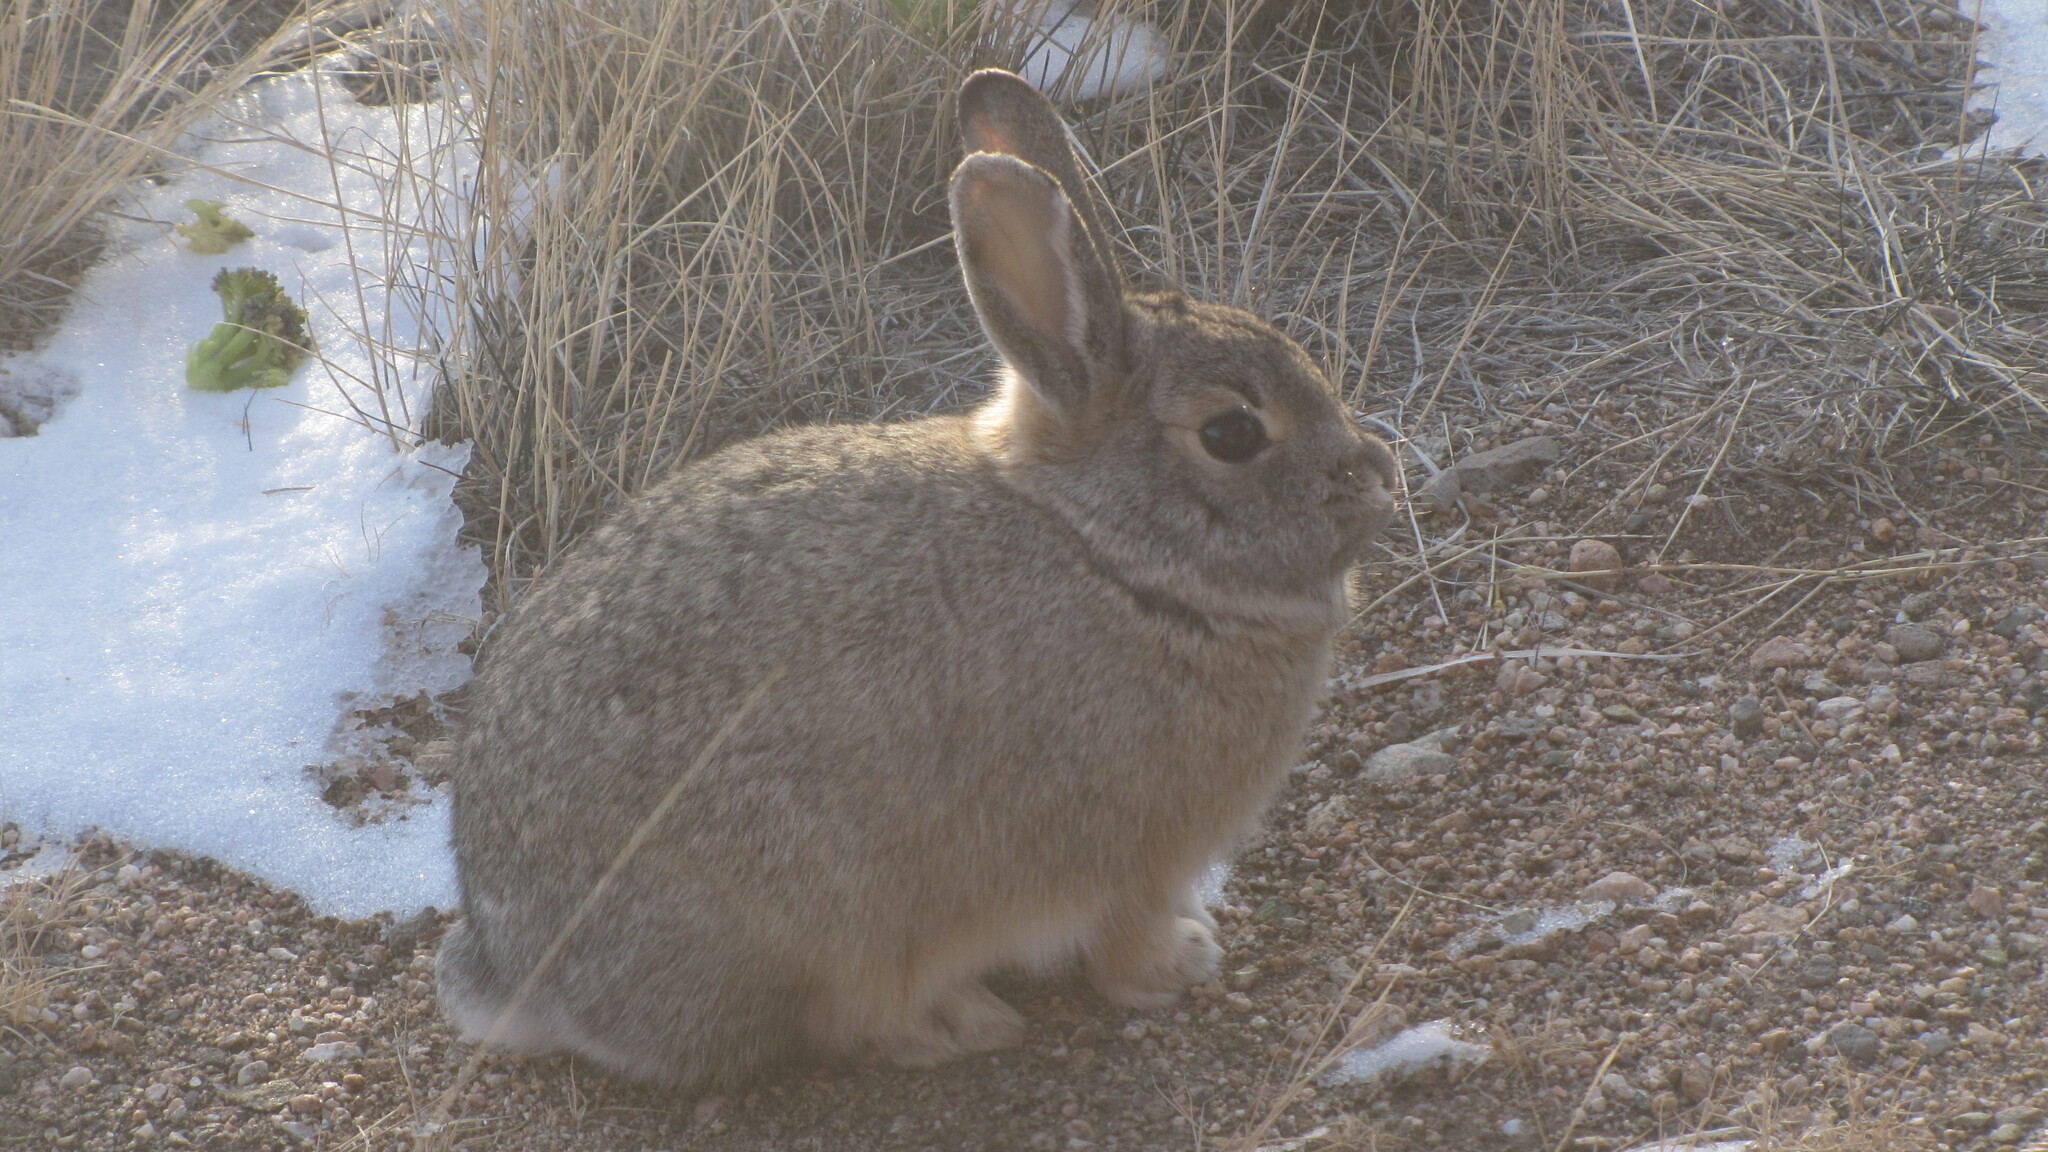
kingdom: Animalia
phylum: Chordata
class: Mammalia
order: Lagomorpha
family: Leporidae
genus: Sylvilagus
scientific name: Sylvilagus nuttallii
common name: Mountain cottontail
